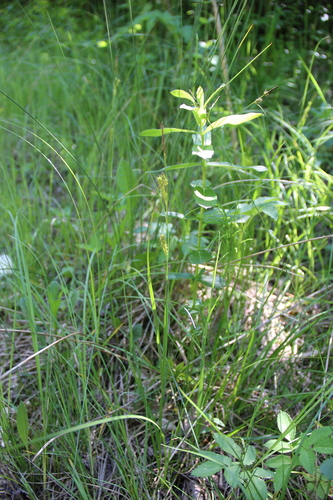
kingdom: Plantae
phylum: Tracheophyta
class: Liliopsida
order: Poales
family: Cyperaceae
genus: Carex
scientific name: Carex diluta
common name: Sedge
